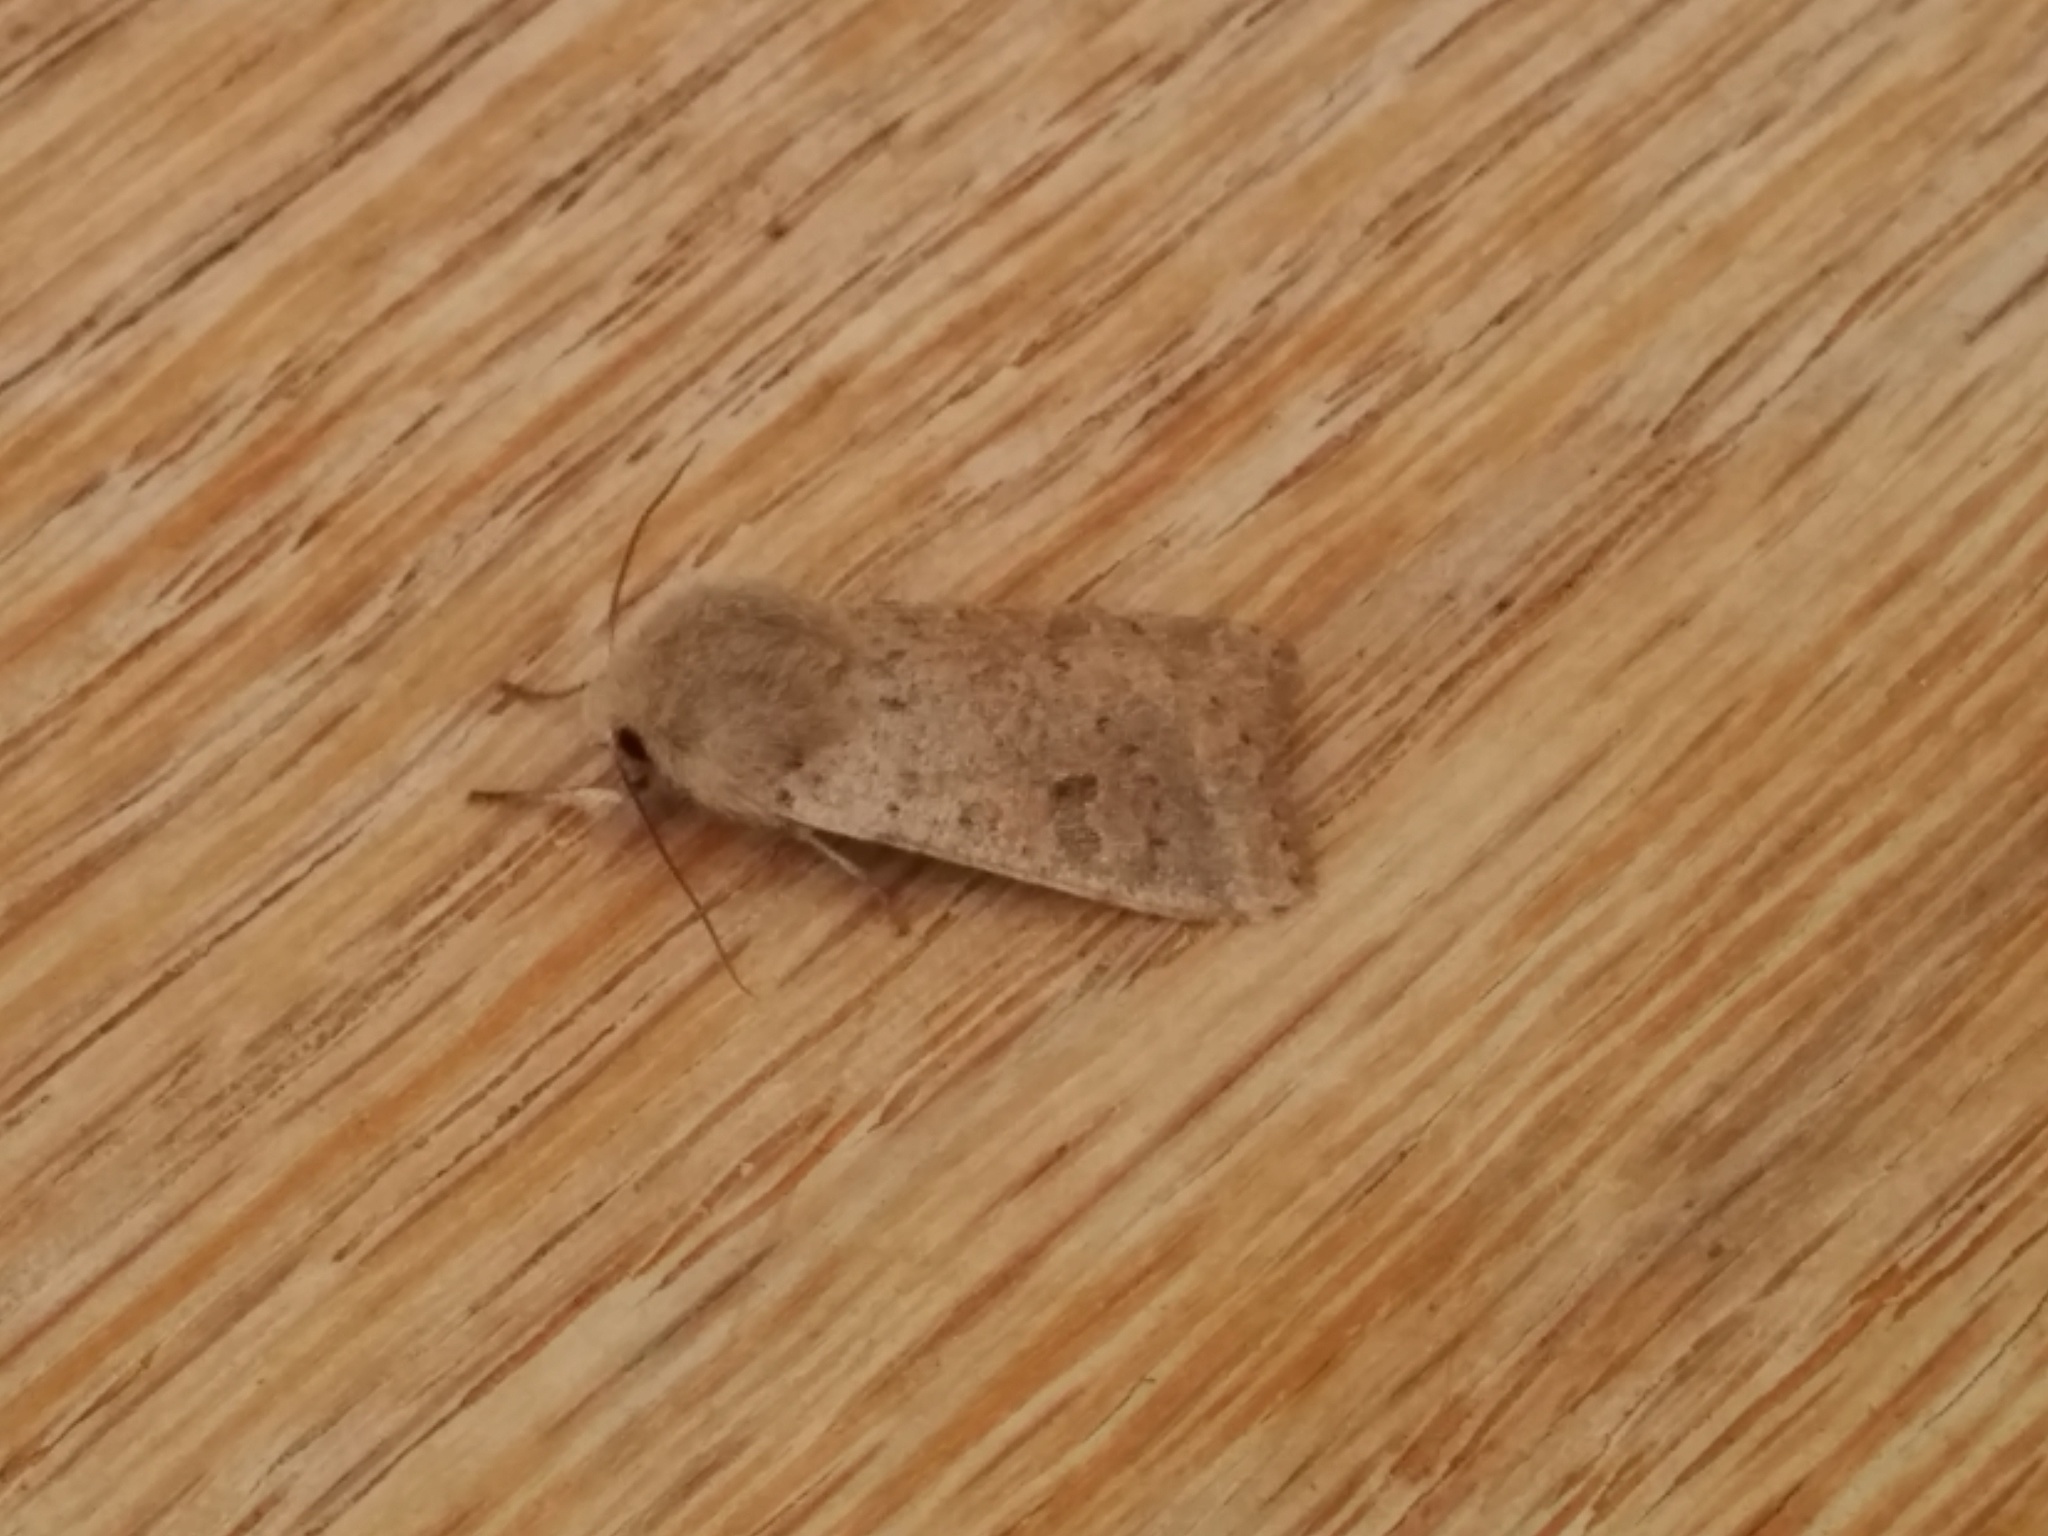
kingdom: Animalia
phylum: Arthropoda
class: Insecta
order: Lepidoptera
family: Noctuidae
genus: Orthosia
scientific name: Orthosia cruda
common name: Small quaker
